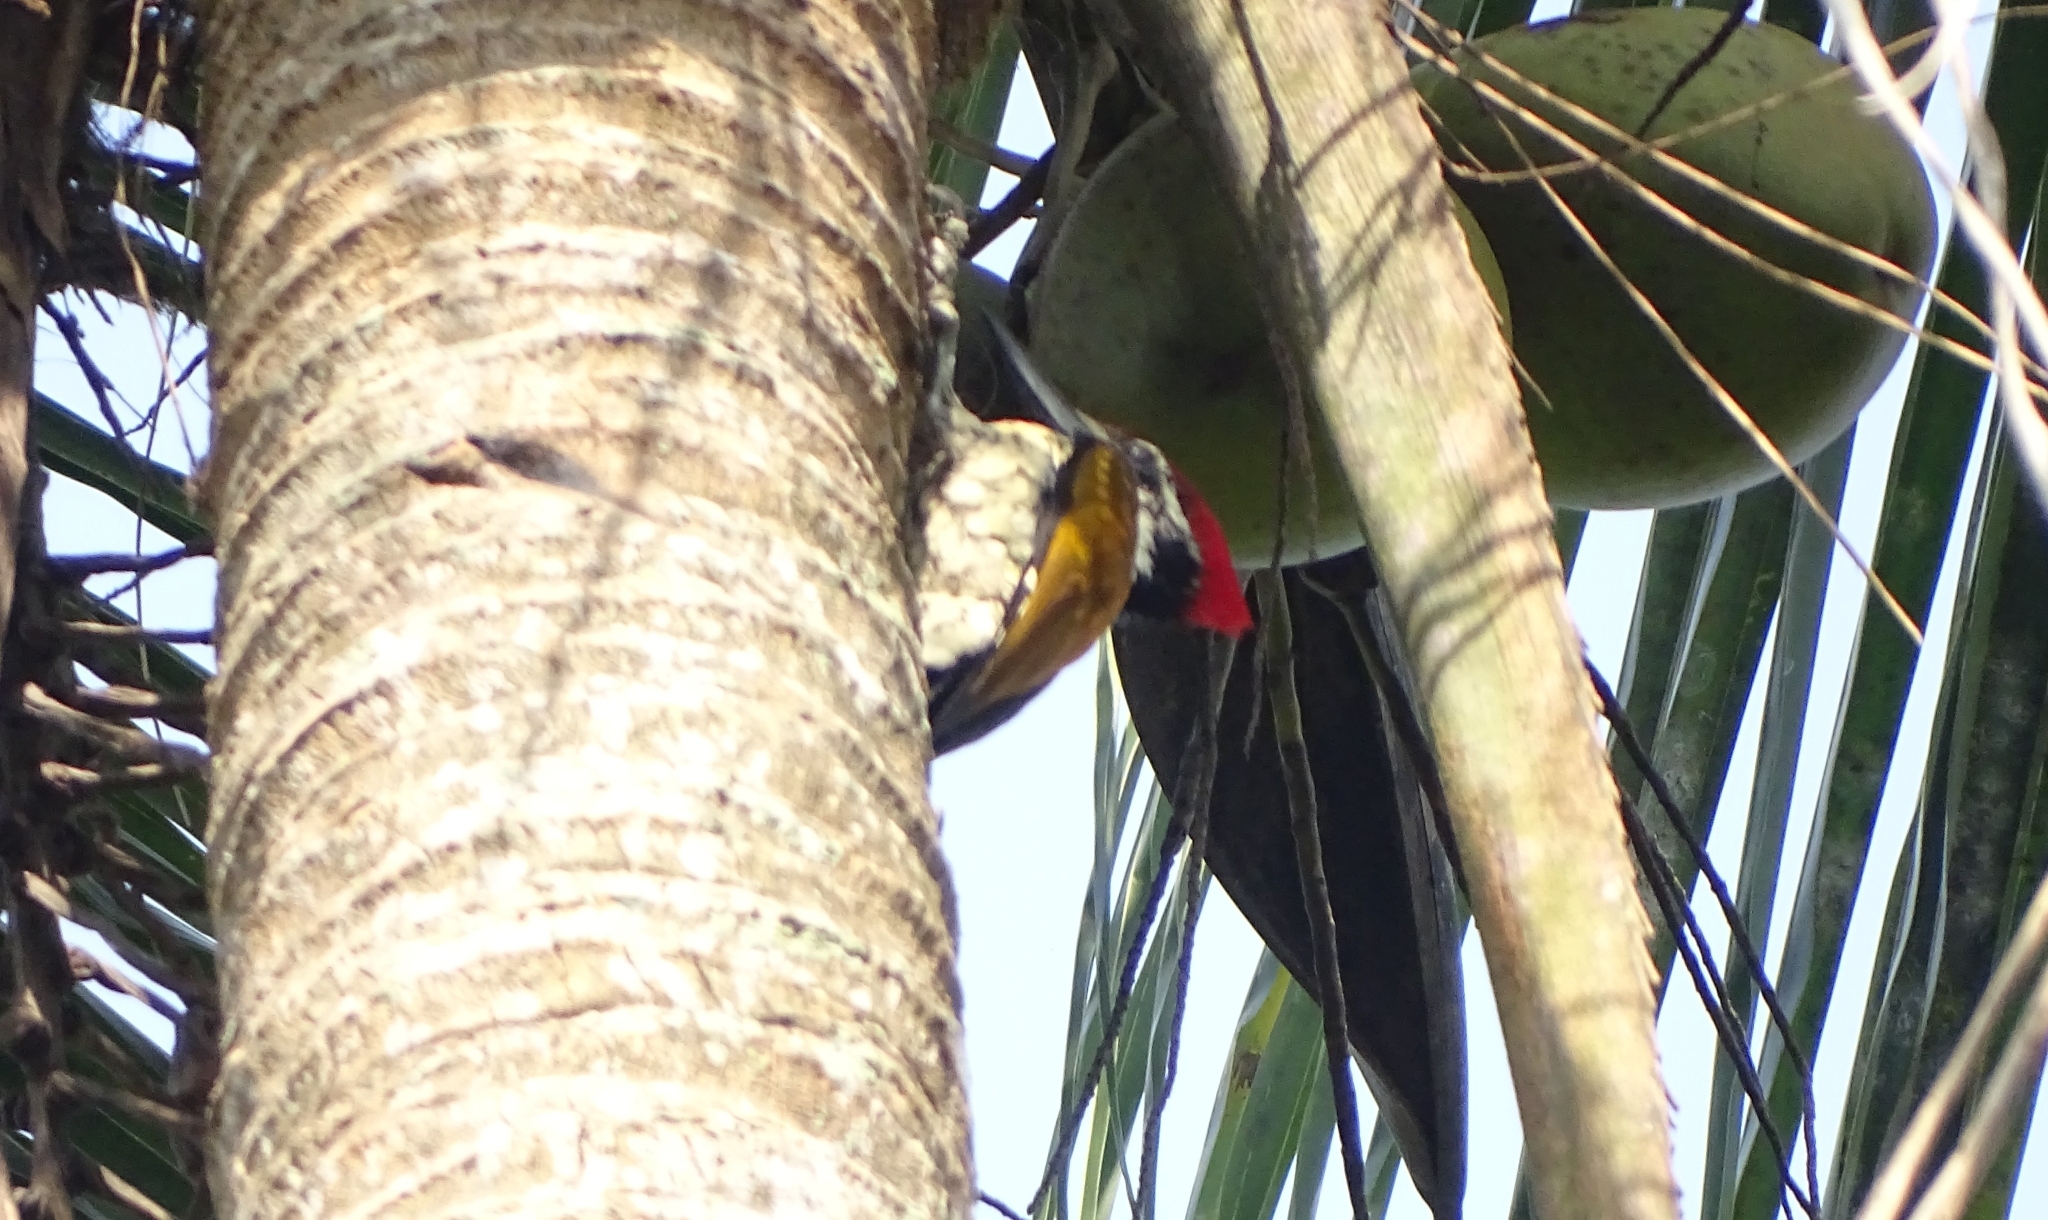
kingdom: Animalia
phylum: Chordata
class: Aves
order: Piciformes
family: Picidae
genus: Dinopium
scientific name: Dinopium benghalense
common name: Black-rumped flameback
